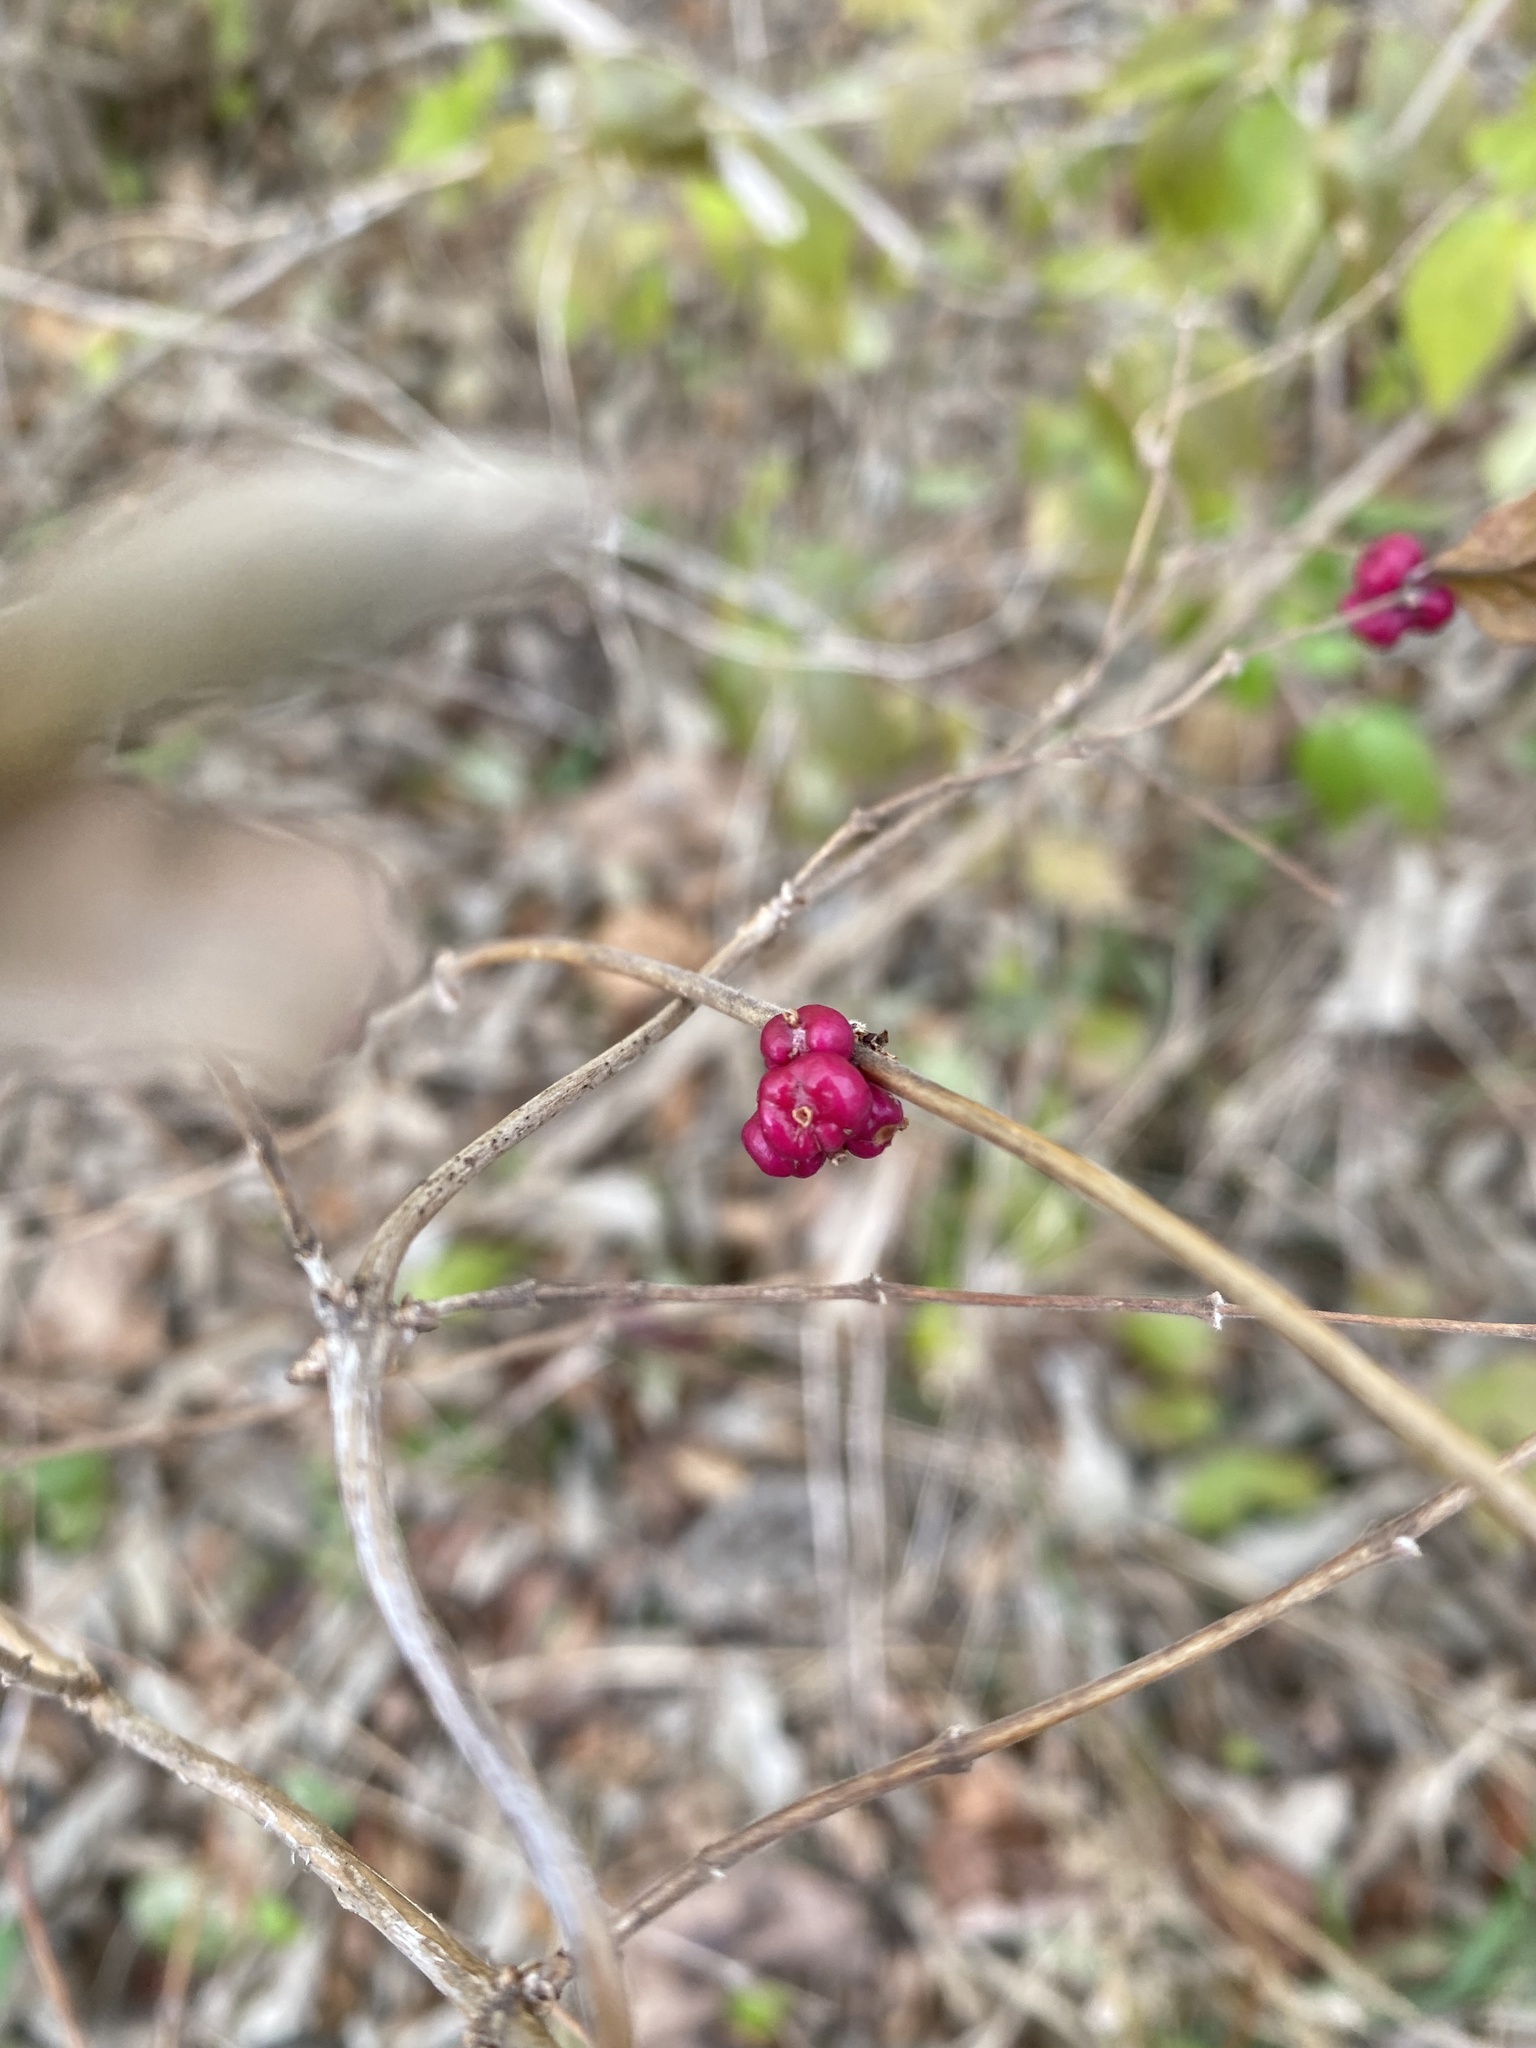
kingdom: Plantae
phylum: Tracheophyta
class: Magnoliopsida
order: Dipsacales
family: Caprifoliaceae
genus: Symphoricarpos
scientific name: Symphoricarpos orbiculatus
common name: Coralberry
